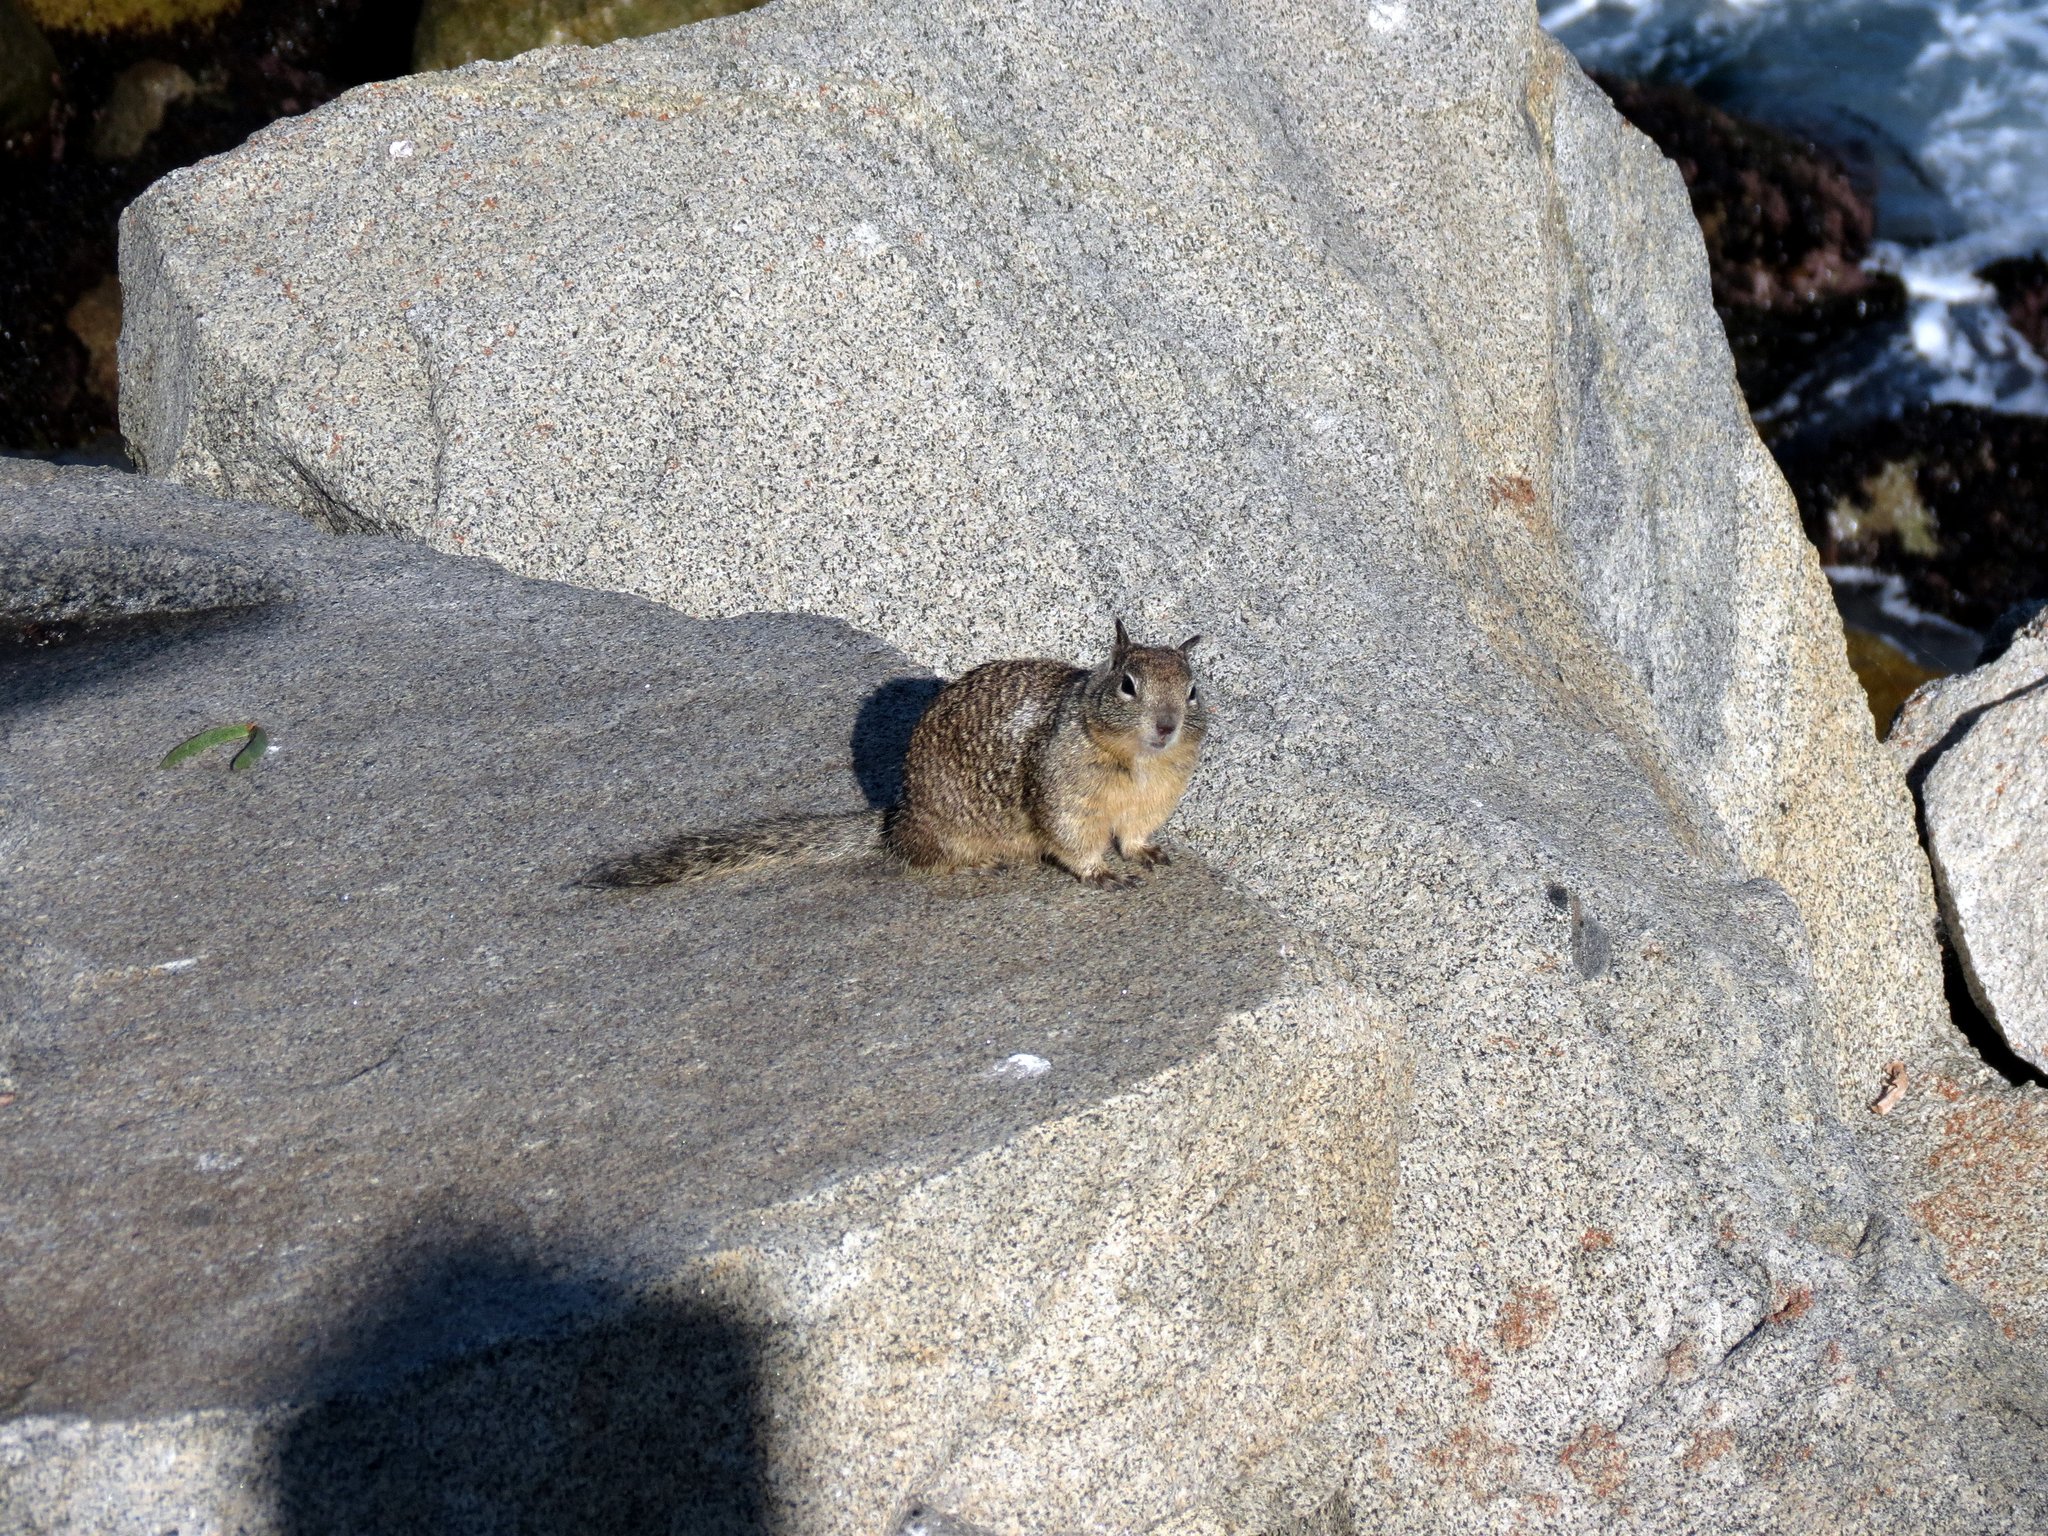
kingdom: Animalia
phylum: Chordata
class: Mammalia
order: Rodentia
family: Sciuridae
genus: Otospermophilus
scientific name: Otospermophilus beecheyi
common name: California ground squirrel
